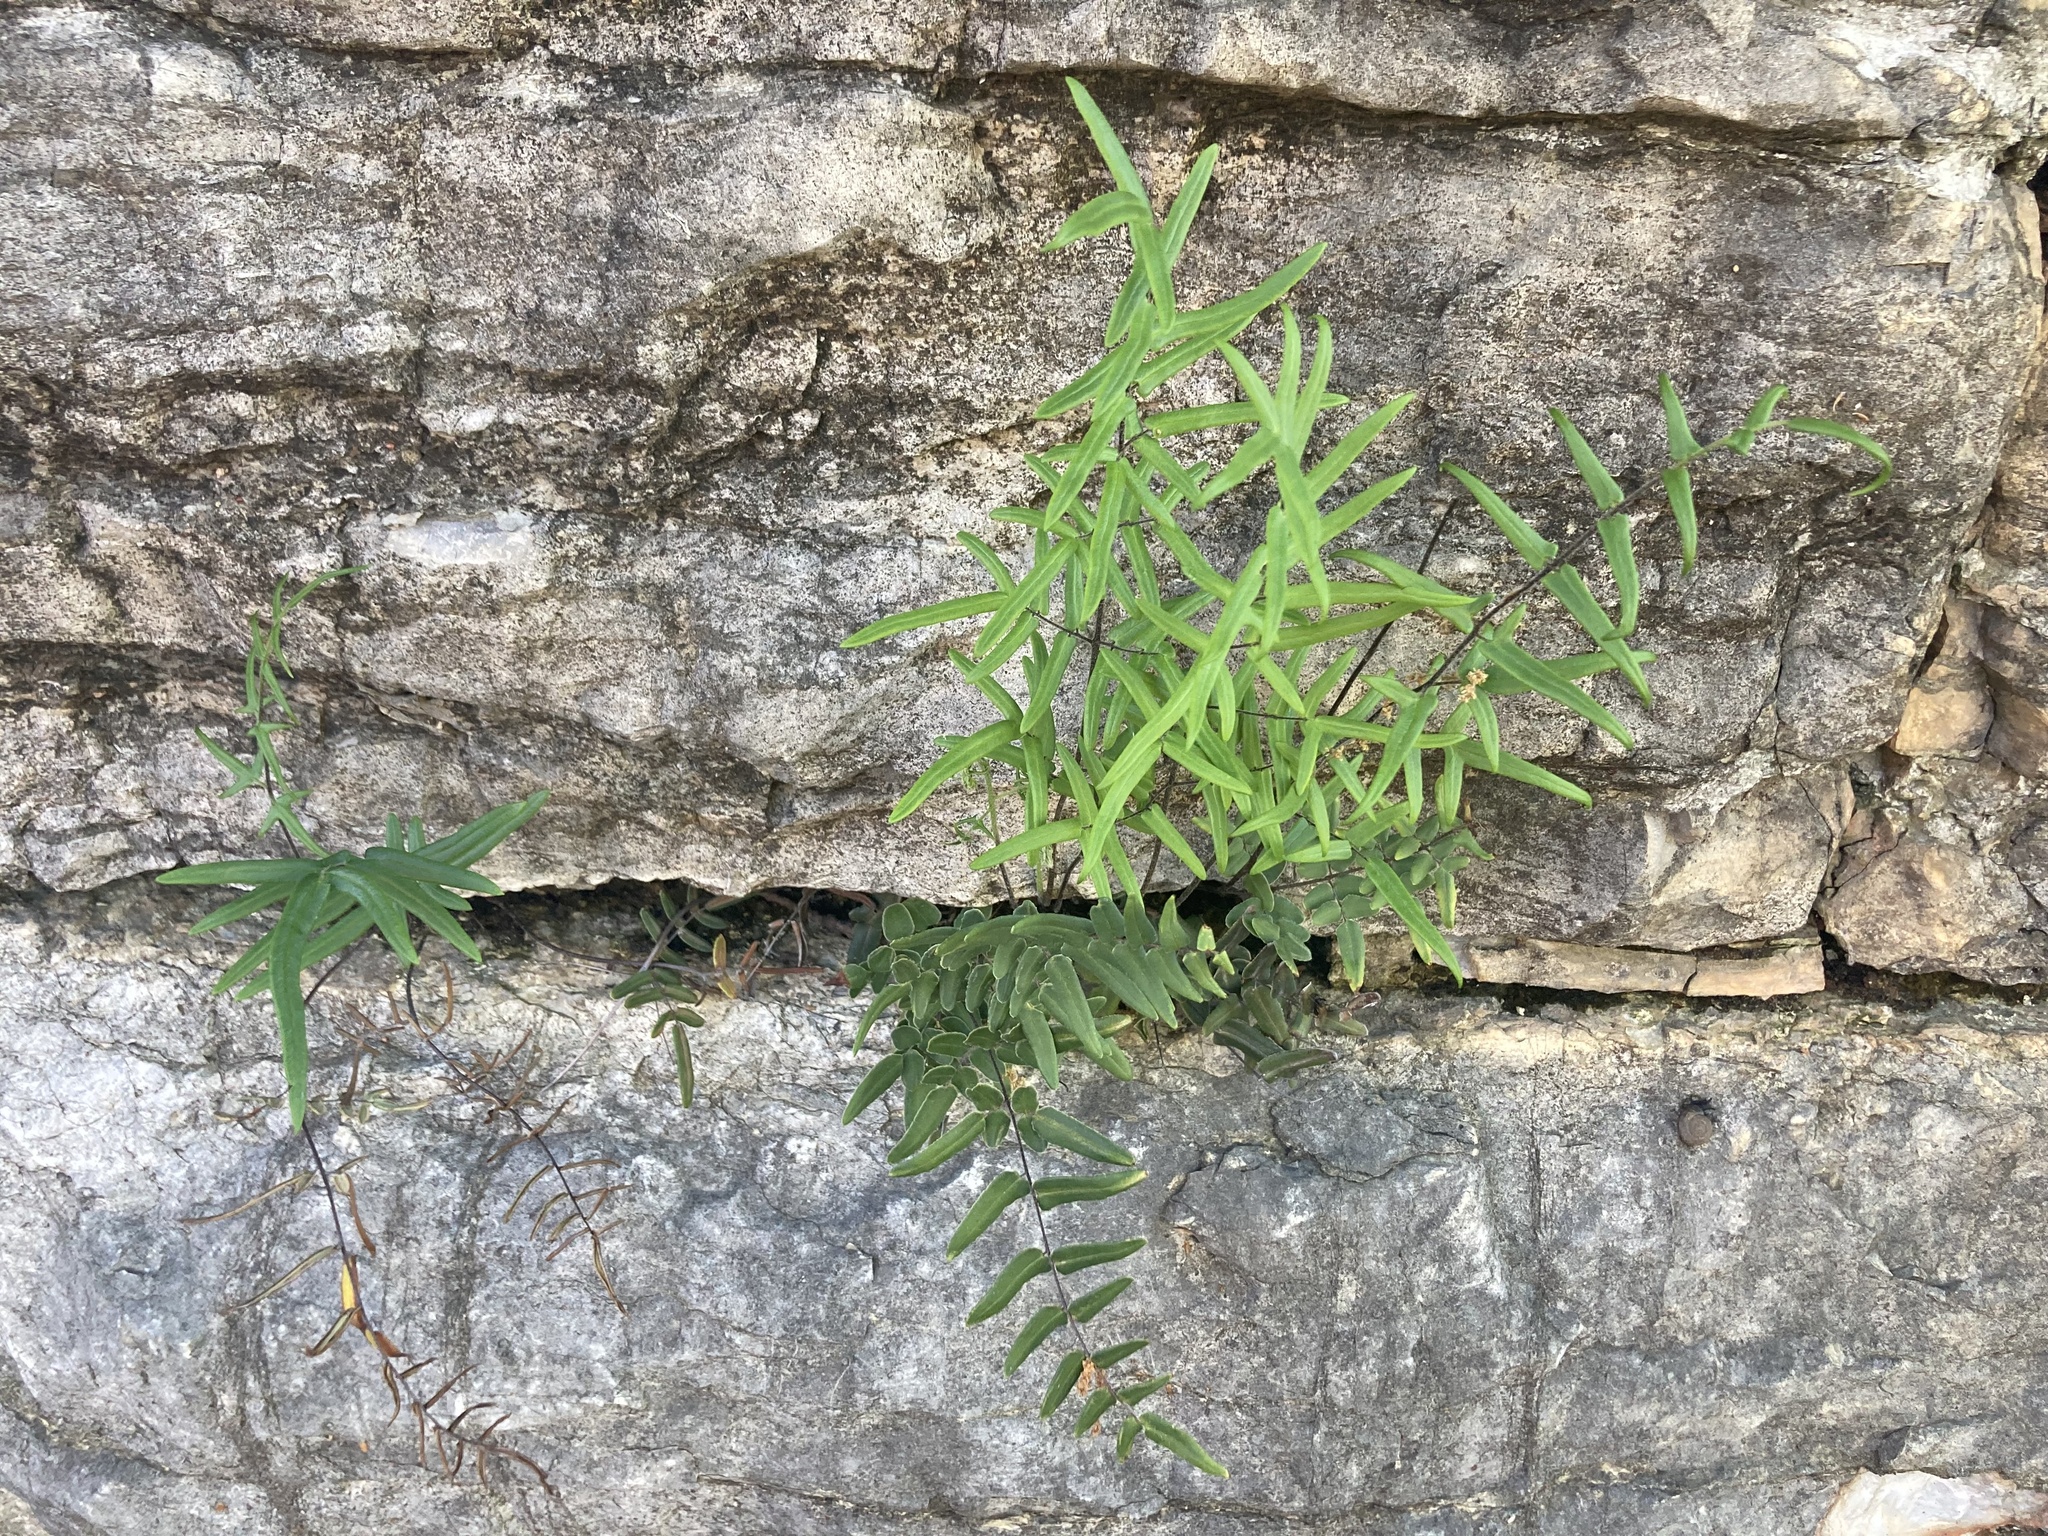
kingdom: Plantae
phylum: Tracheophyta
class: Polypodiopsida
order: Polypodiales
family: Pteridaceae
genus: Pellaea
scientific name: Pellaea atropurpurea
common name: Hairy cliffbrake
